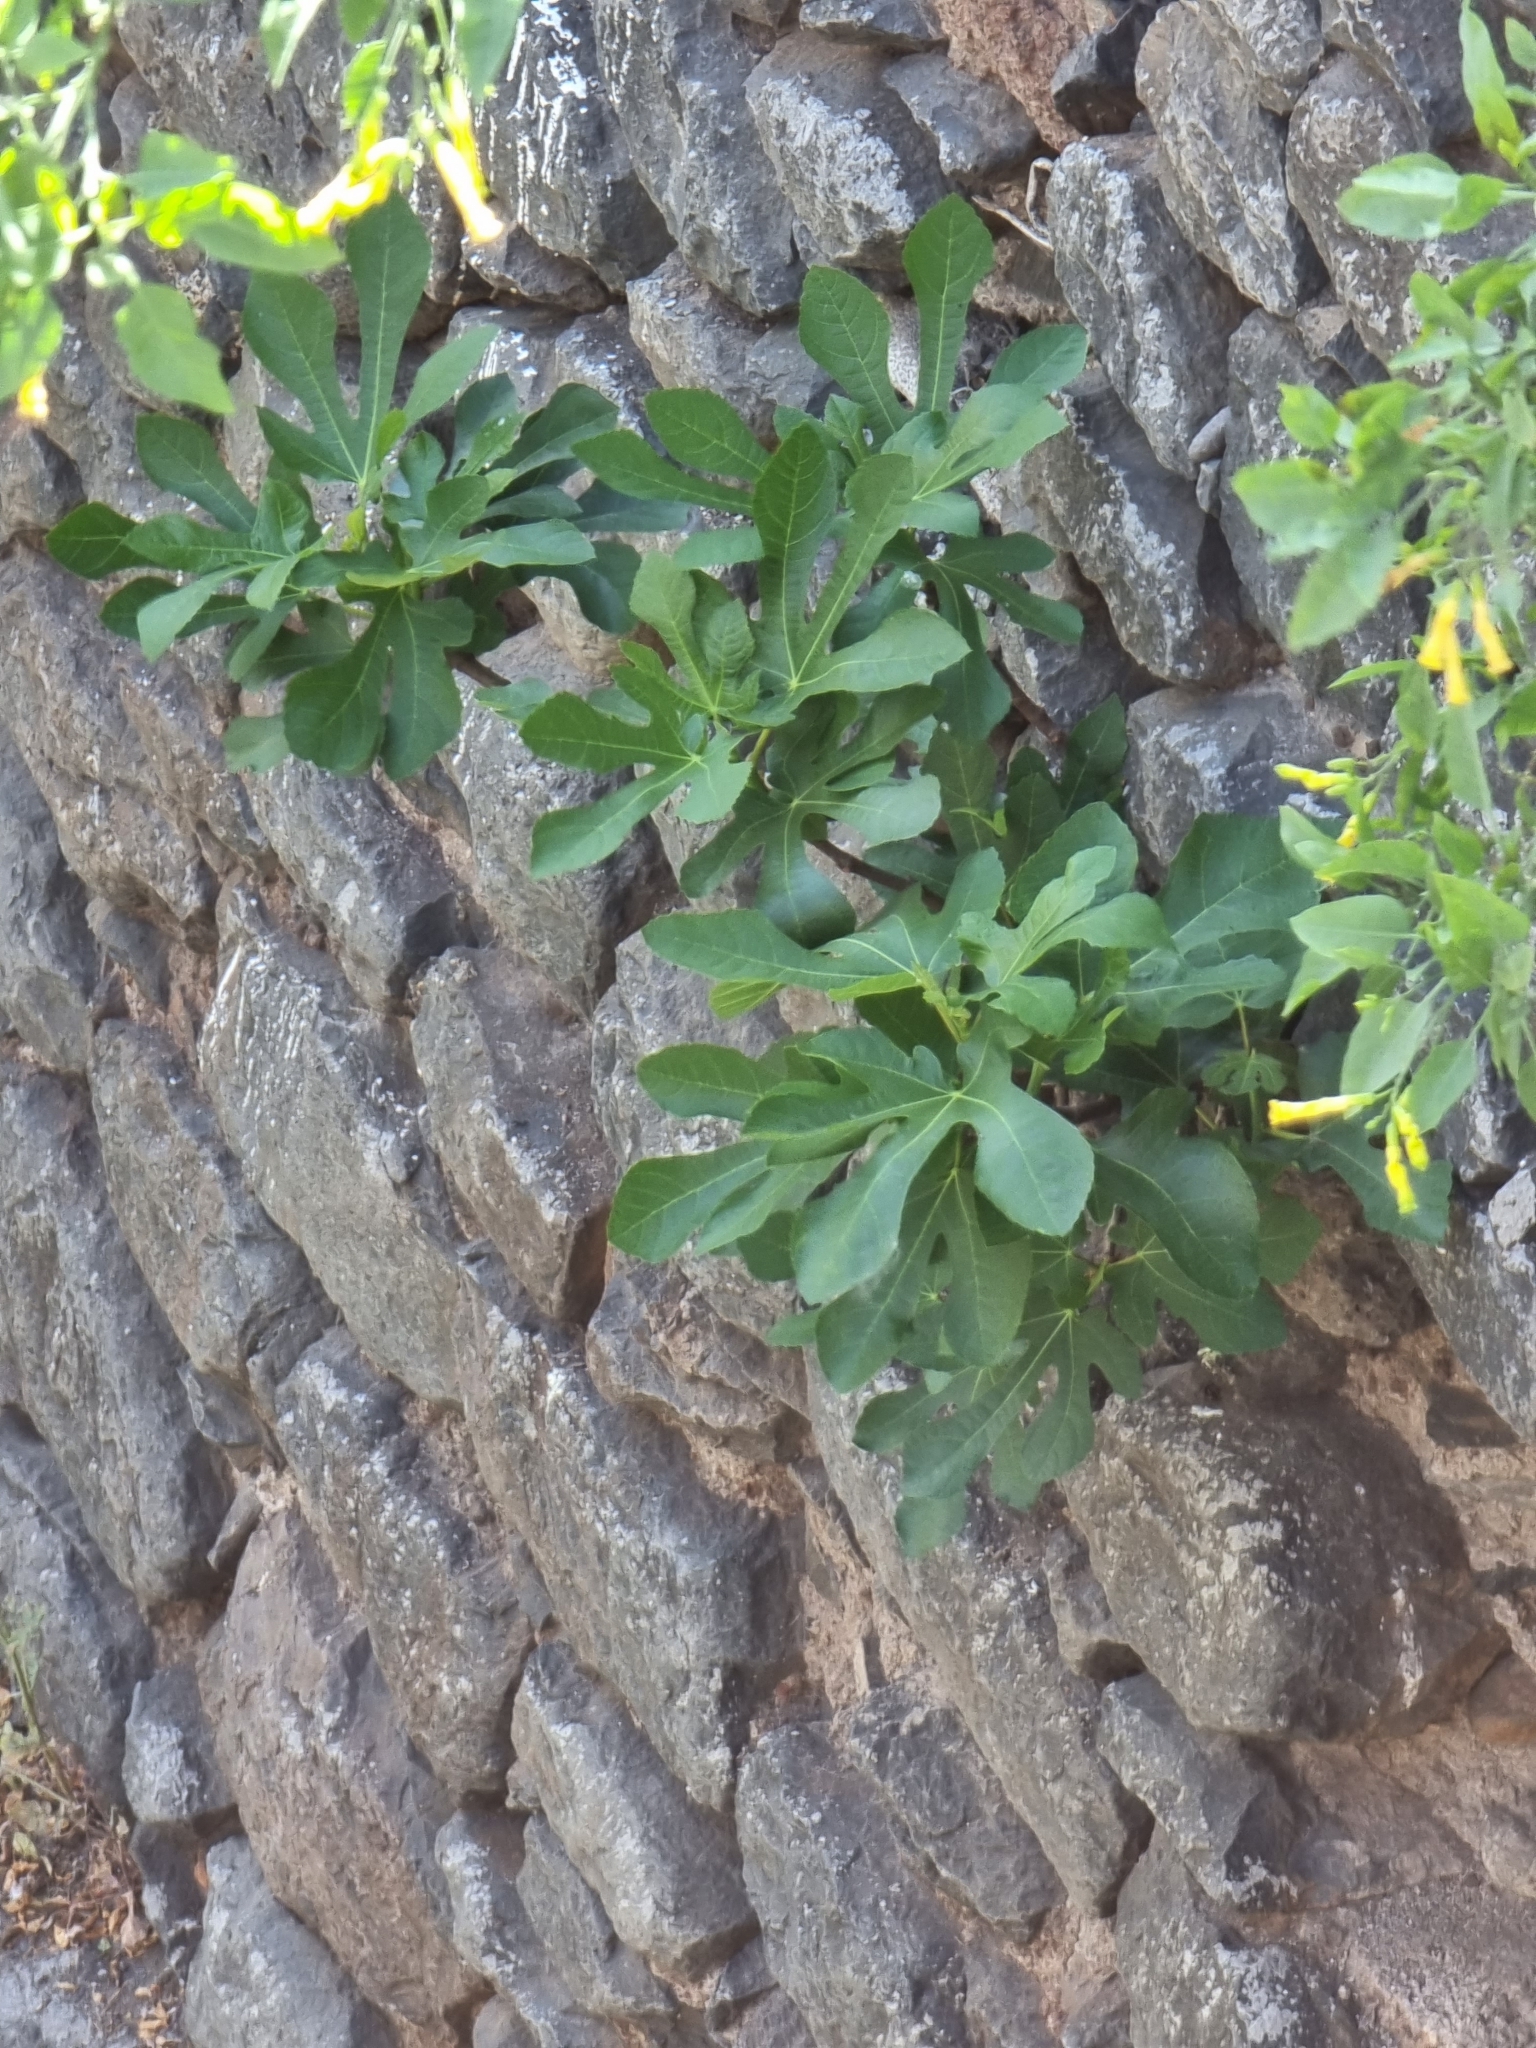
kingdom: Plantae
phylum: Tracheophyta
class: Magnoliopsida
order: Rosales
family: Moraceae
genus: Ficus
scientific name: Ficus carica
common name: Fig
